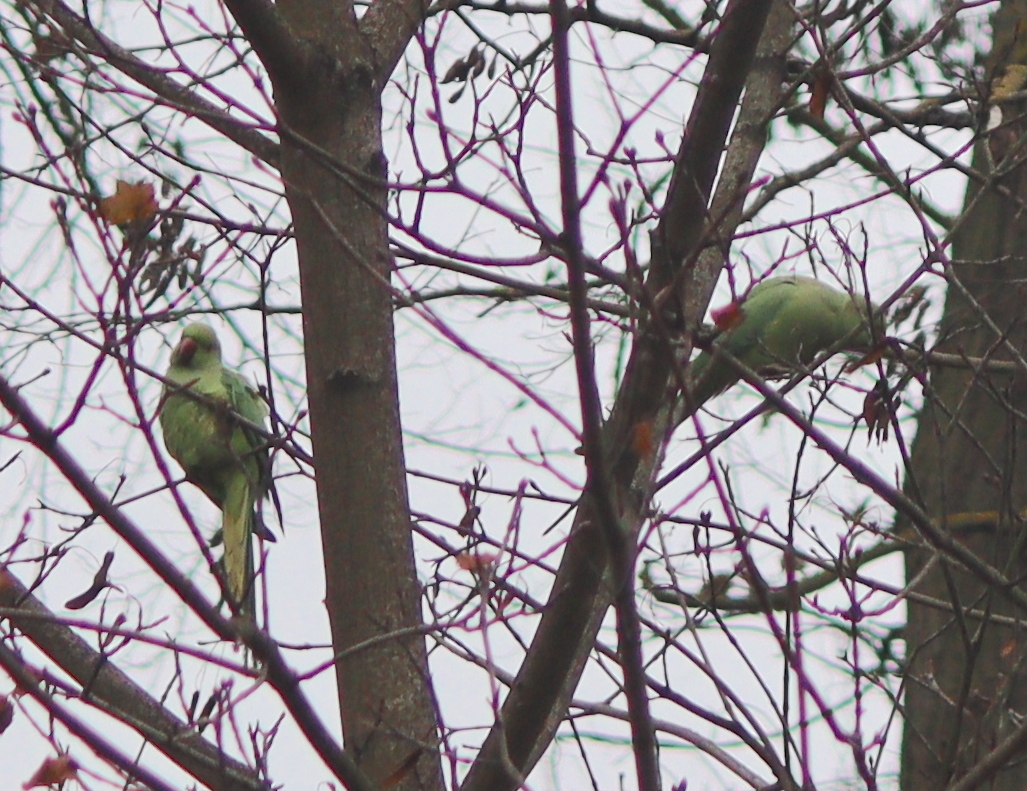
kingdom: Animalia
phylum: Chordata
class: Aves
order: Psittaciformes
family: Psittacidae
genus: Psittacula
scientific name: Psittacula krameri
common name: Rose-ringed parakeet
